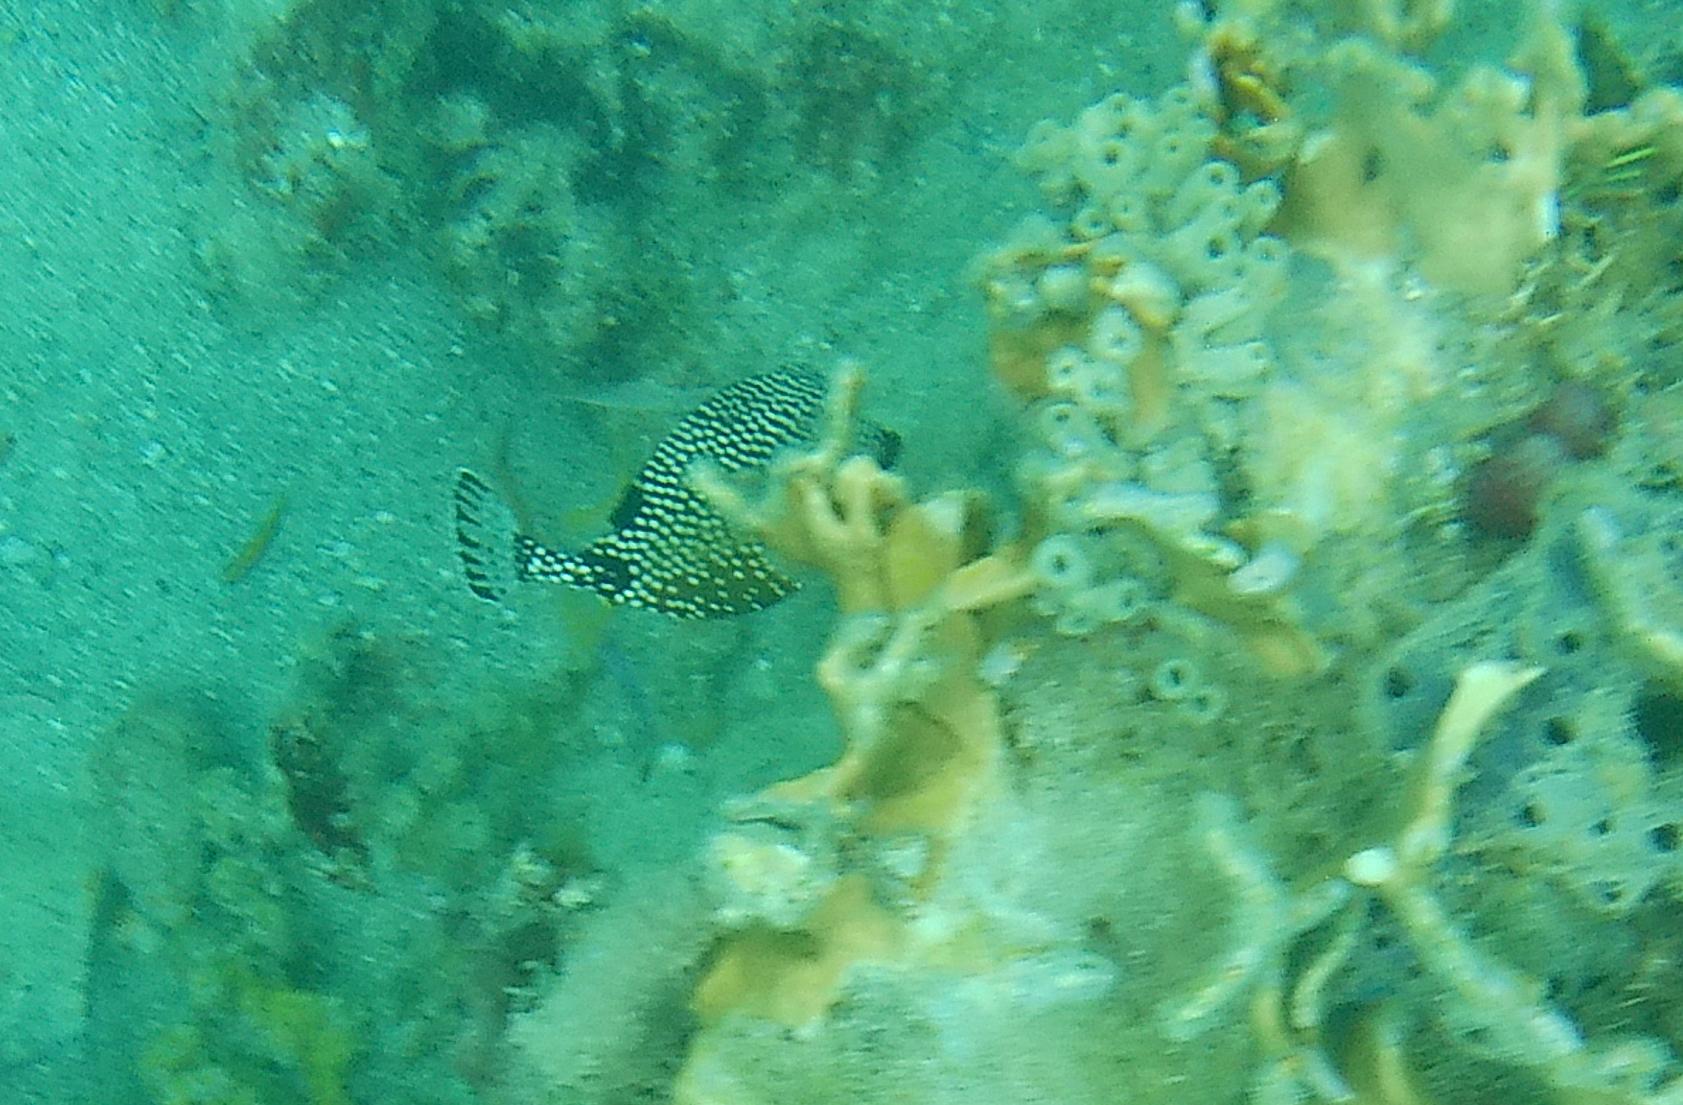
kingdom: Animalia
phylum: Chordata
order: Tetraodontiformes
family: Ostraciidae
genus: Lactophrys
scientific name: Lactophrys triqueter
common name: Smooth trunkfish
